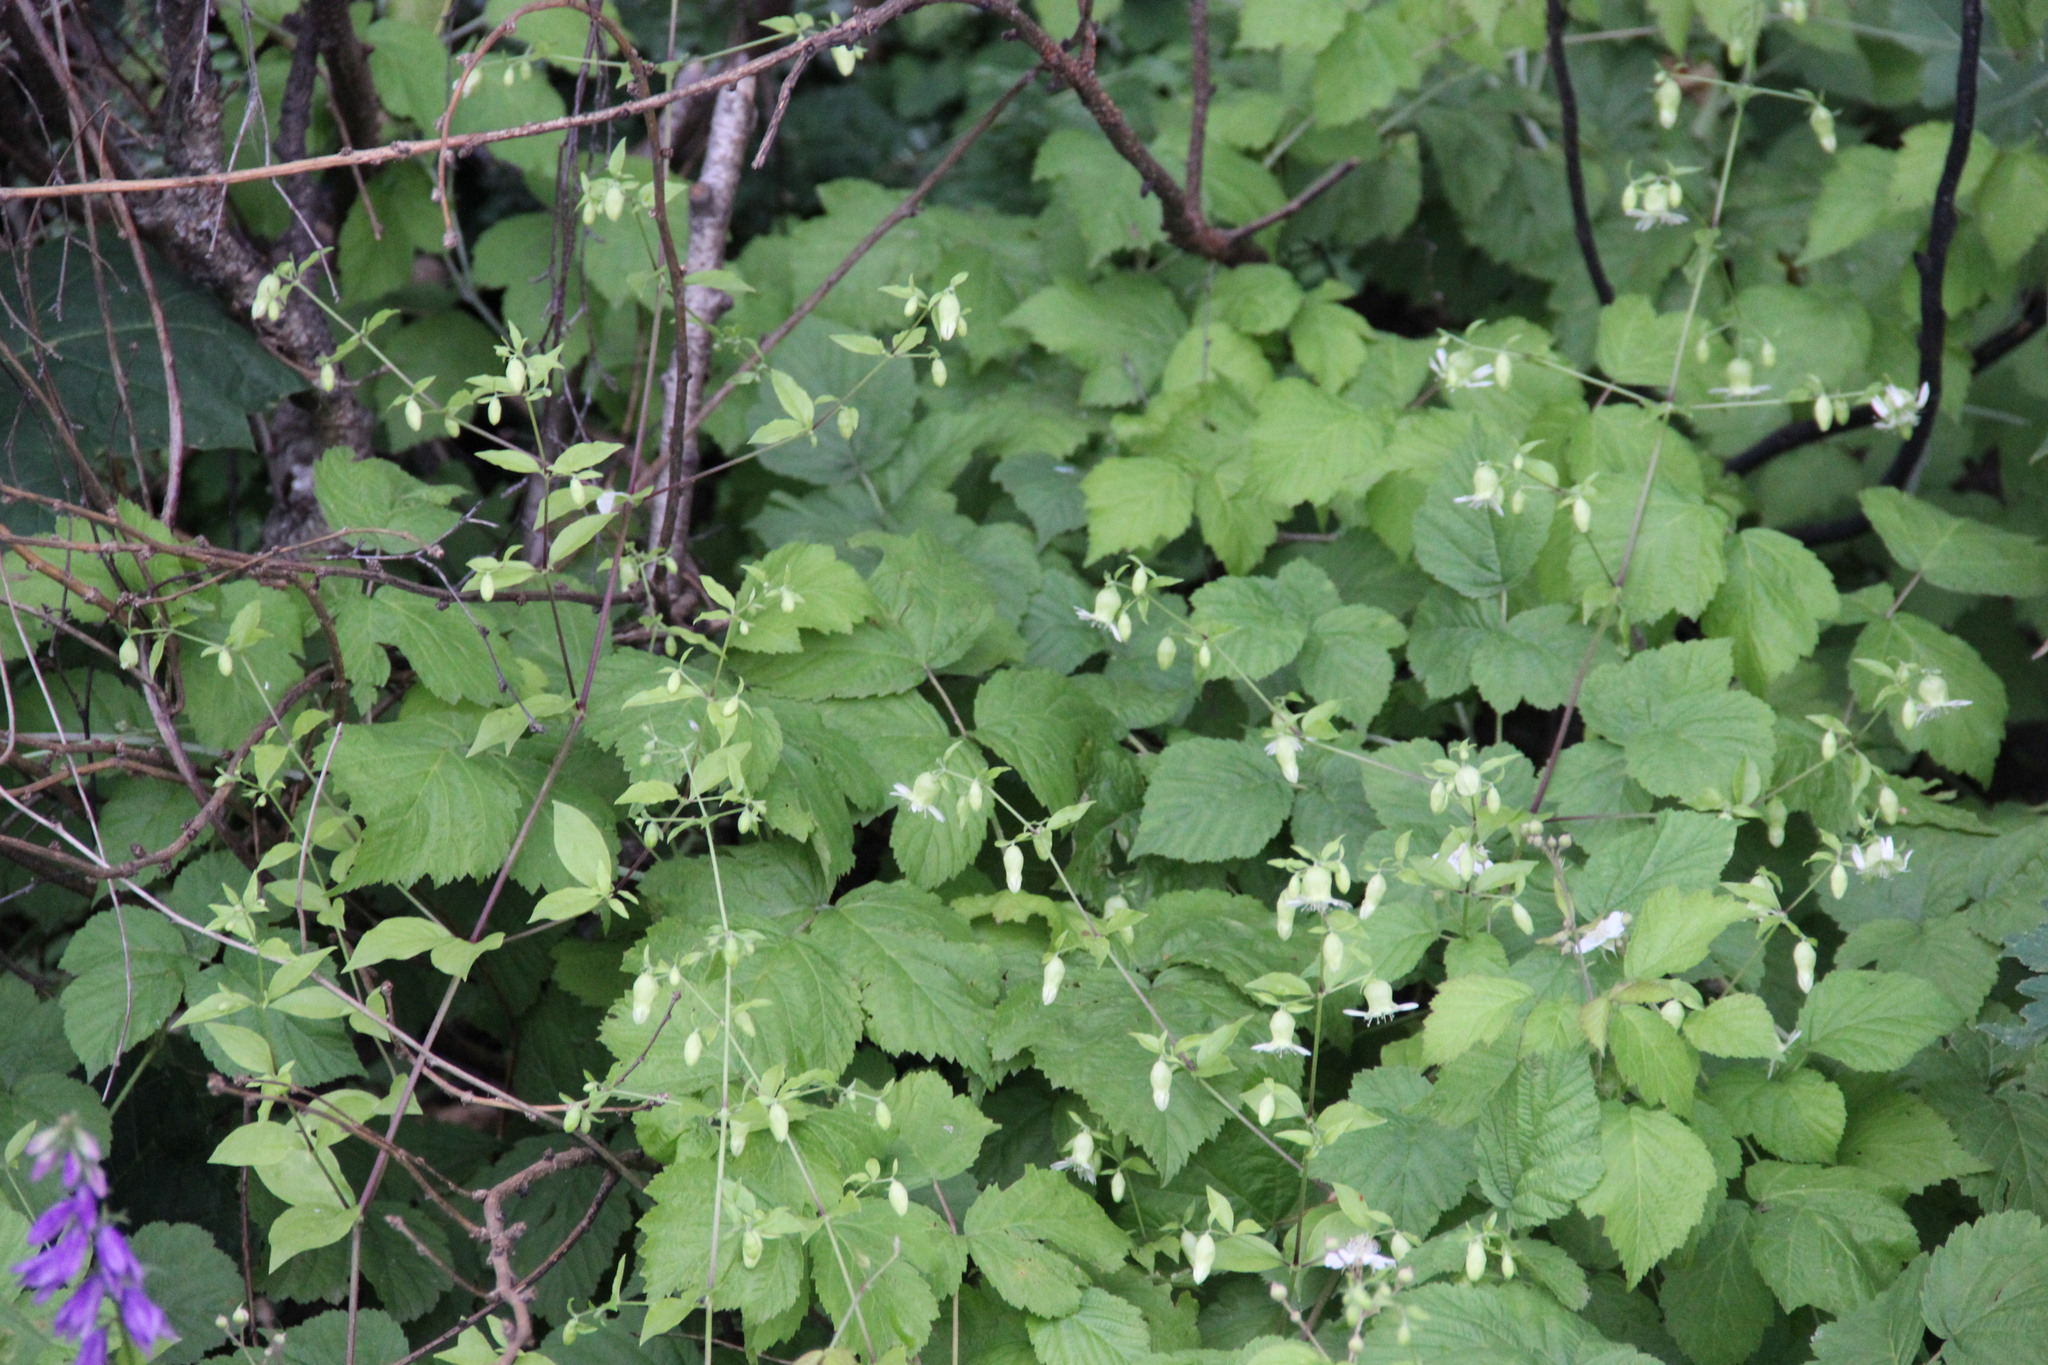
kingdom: Plantae
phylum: Tracheophyta
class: Magnoliopsida
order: Caryophyllales
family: Caryophyllaceae
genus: Silene
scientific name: Silene baccifera
